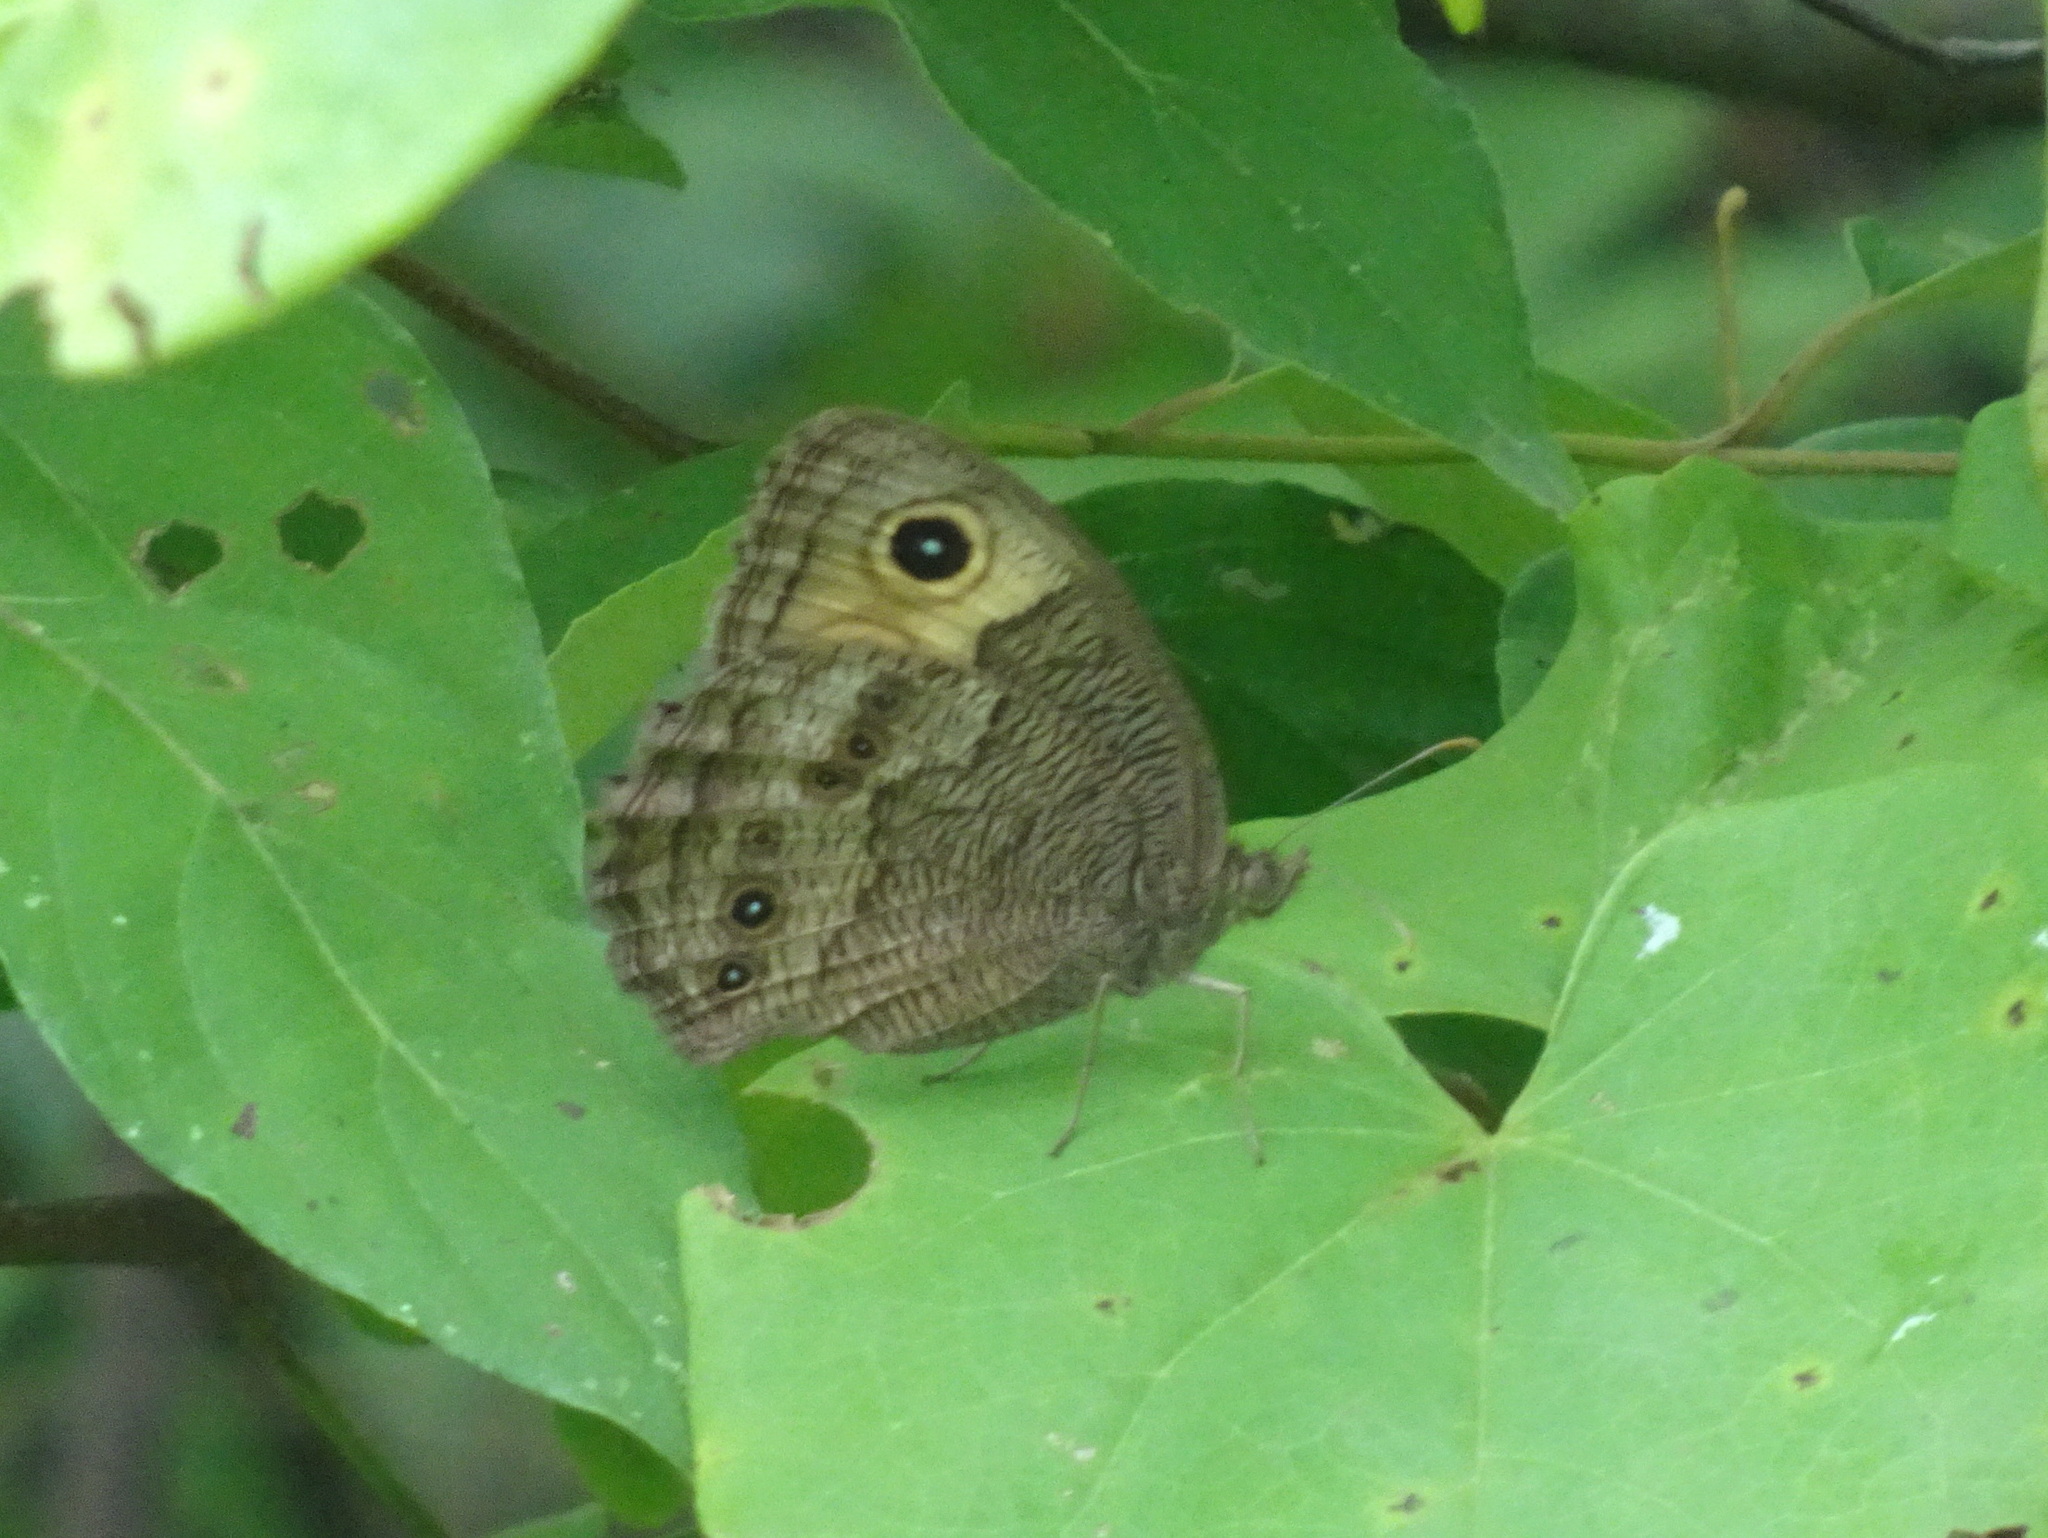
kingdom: Animalia
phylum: Arthropoda
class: Insecta
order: Lepidoptera
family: Nymphalidae
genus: Cercyonis
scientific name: Cercyonis pegala
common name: Common wood-nymph
